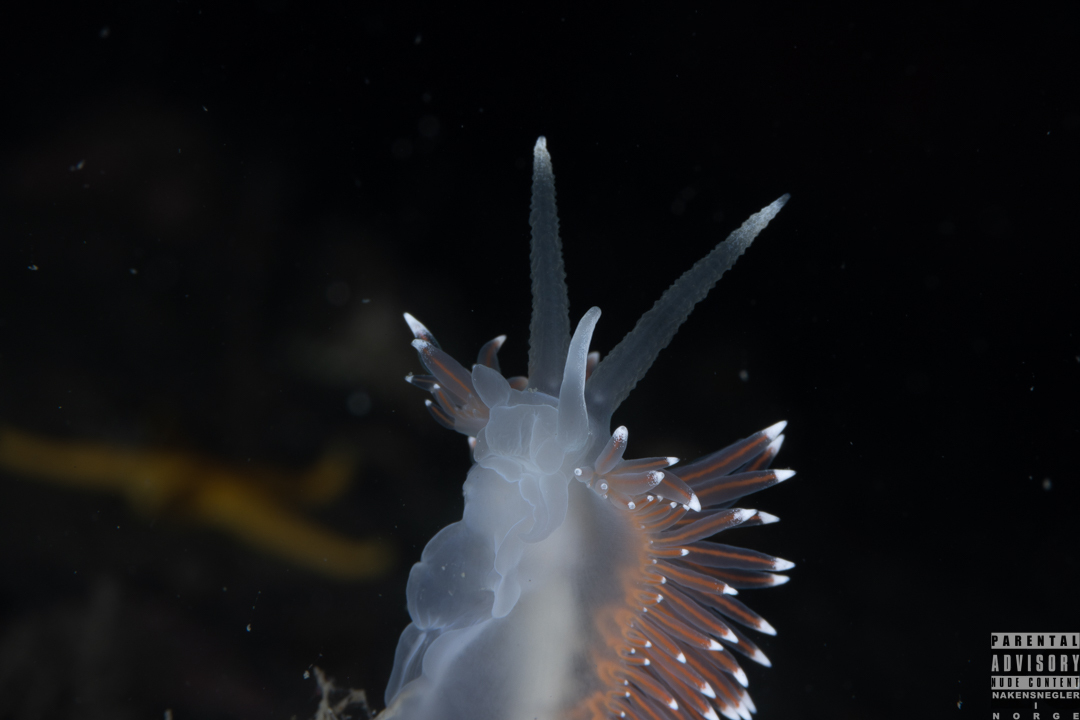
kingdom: Animalia
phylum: Mollusca
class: Gastropoda
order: Nudibranchia
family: Coryphellidae
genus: Coryphella
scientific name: Coryphella nobilis
